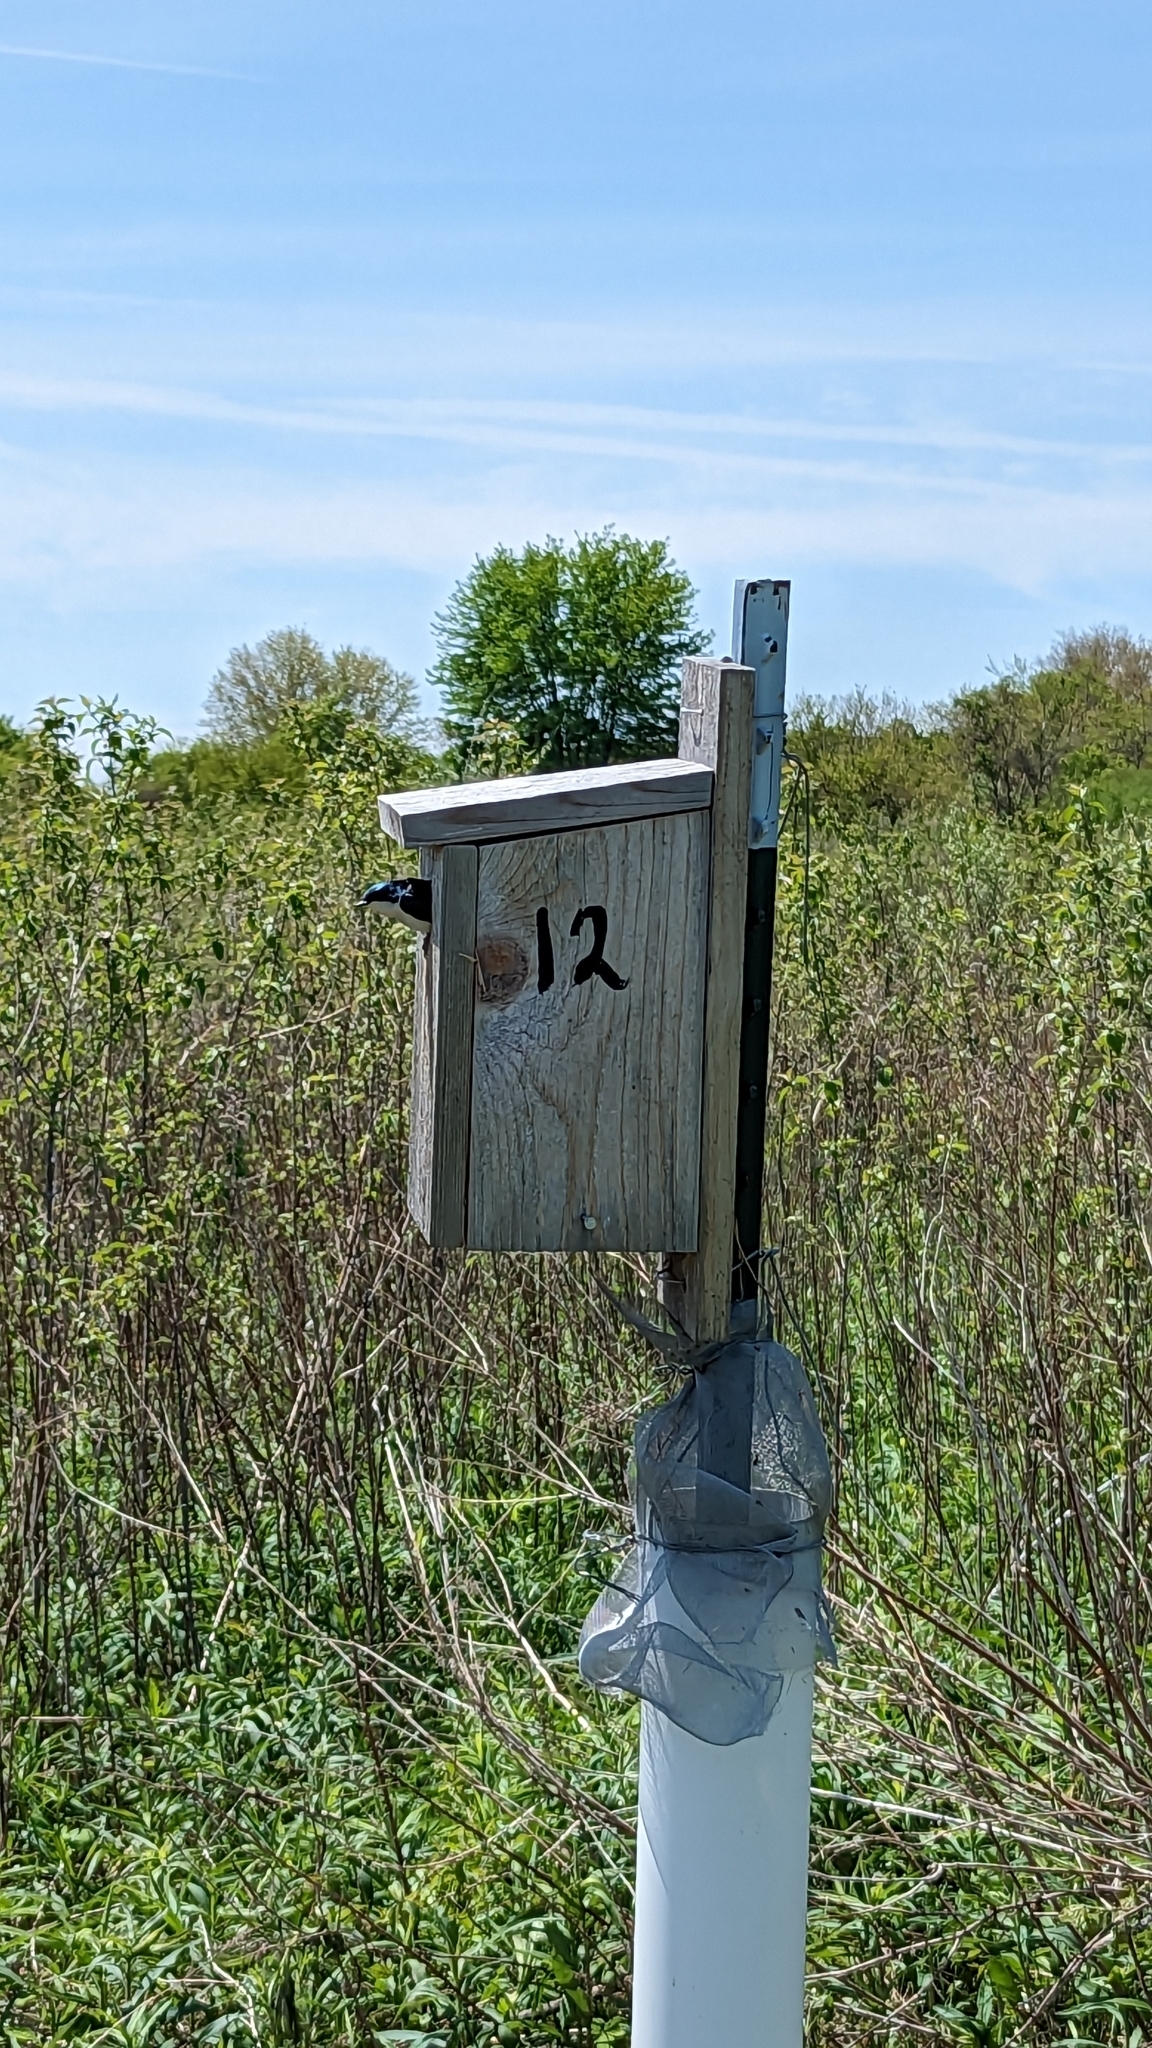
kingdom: Animalia
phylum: Chordata
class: Aves
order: Passeriformes
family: Hirundinidae
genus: Tachycineta
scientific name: Tachycineta bicolor
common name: Tree swallow
